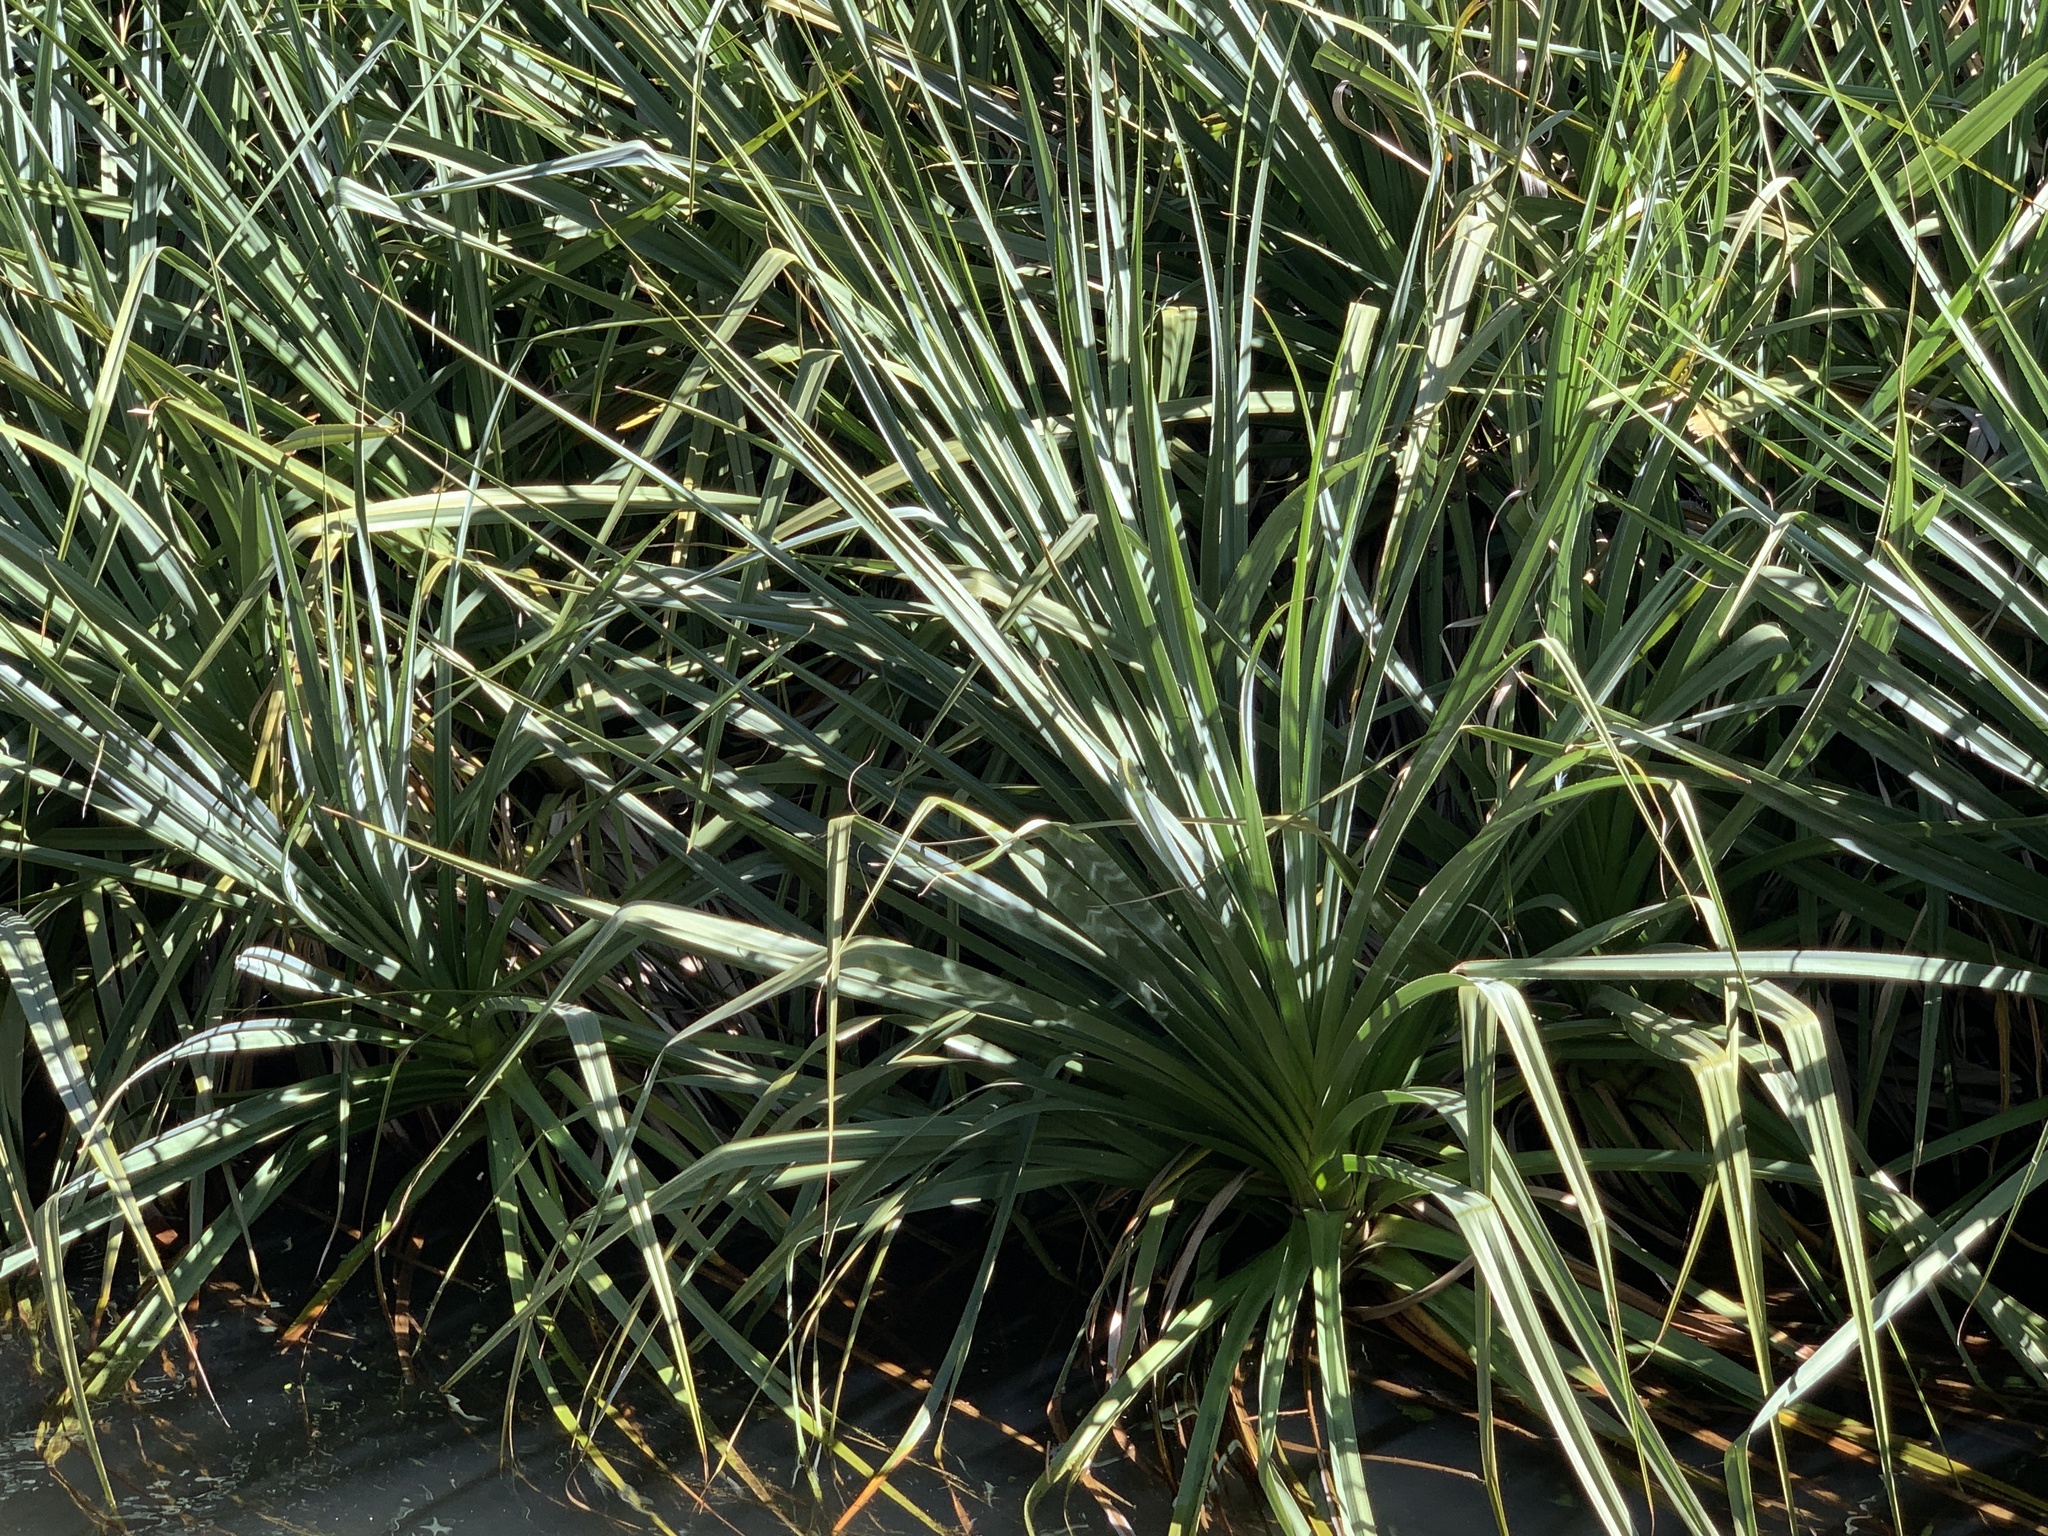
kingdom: Plantae
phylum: Tracheophyta
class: Liliopsida
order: Poales
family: Thurniaceae
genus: Prionium
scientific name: Prionium serratum
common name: Palmiet
